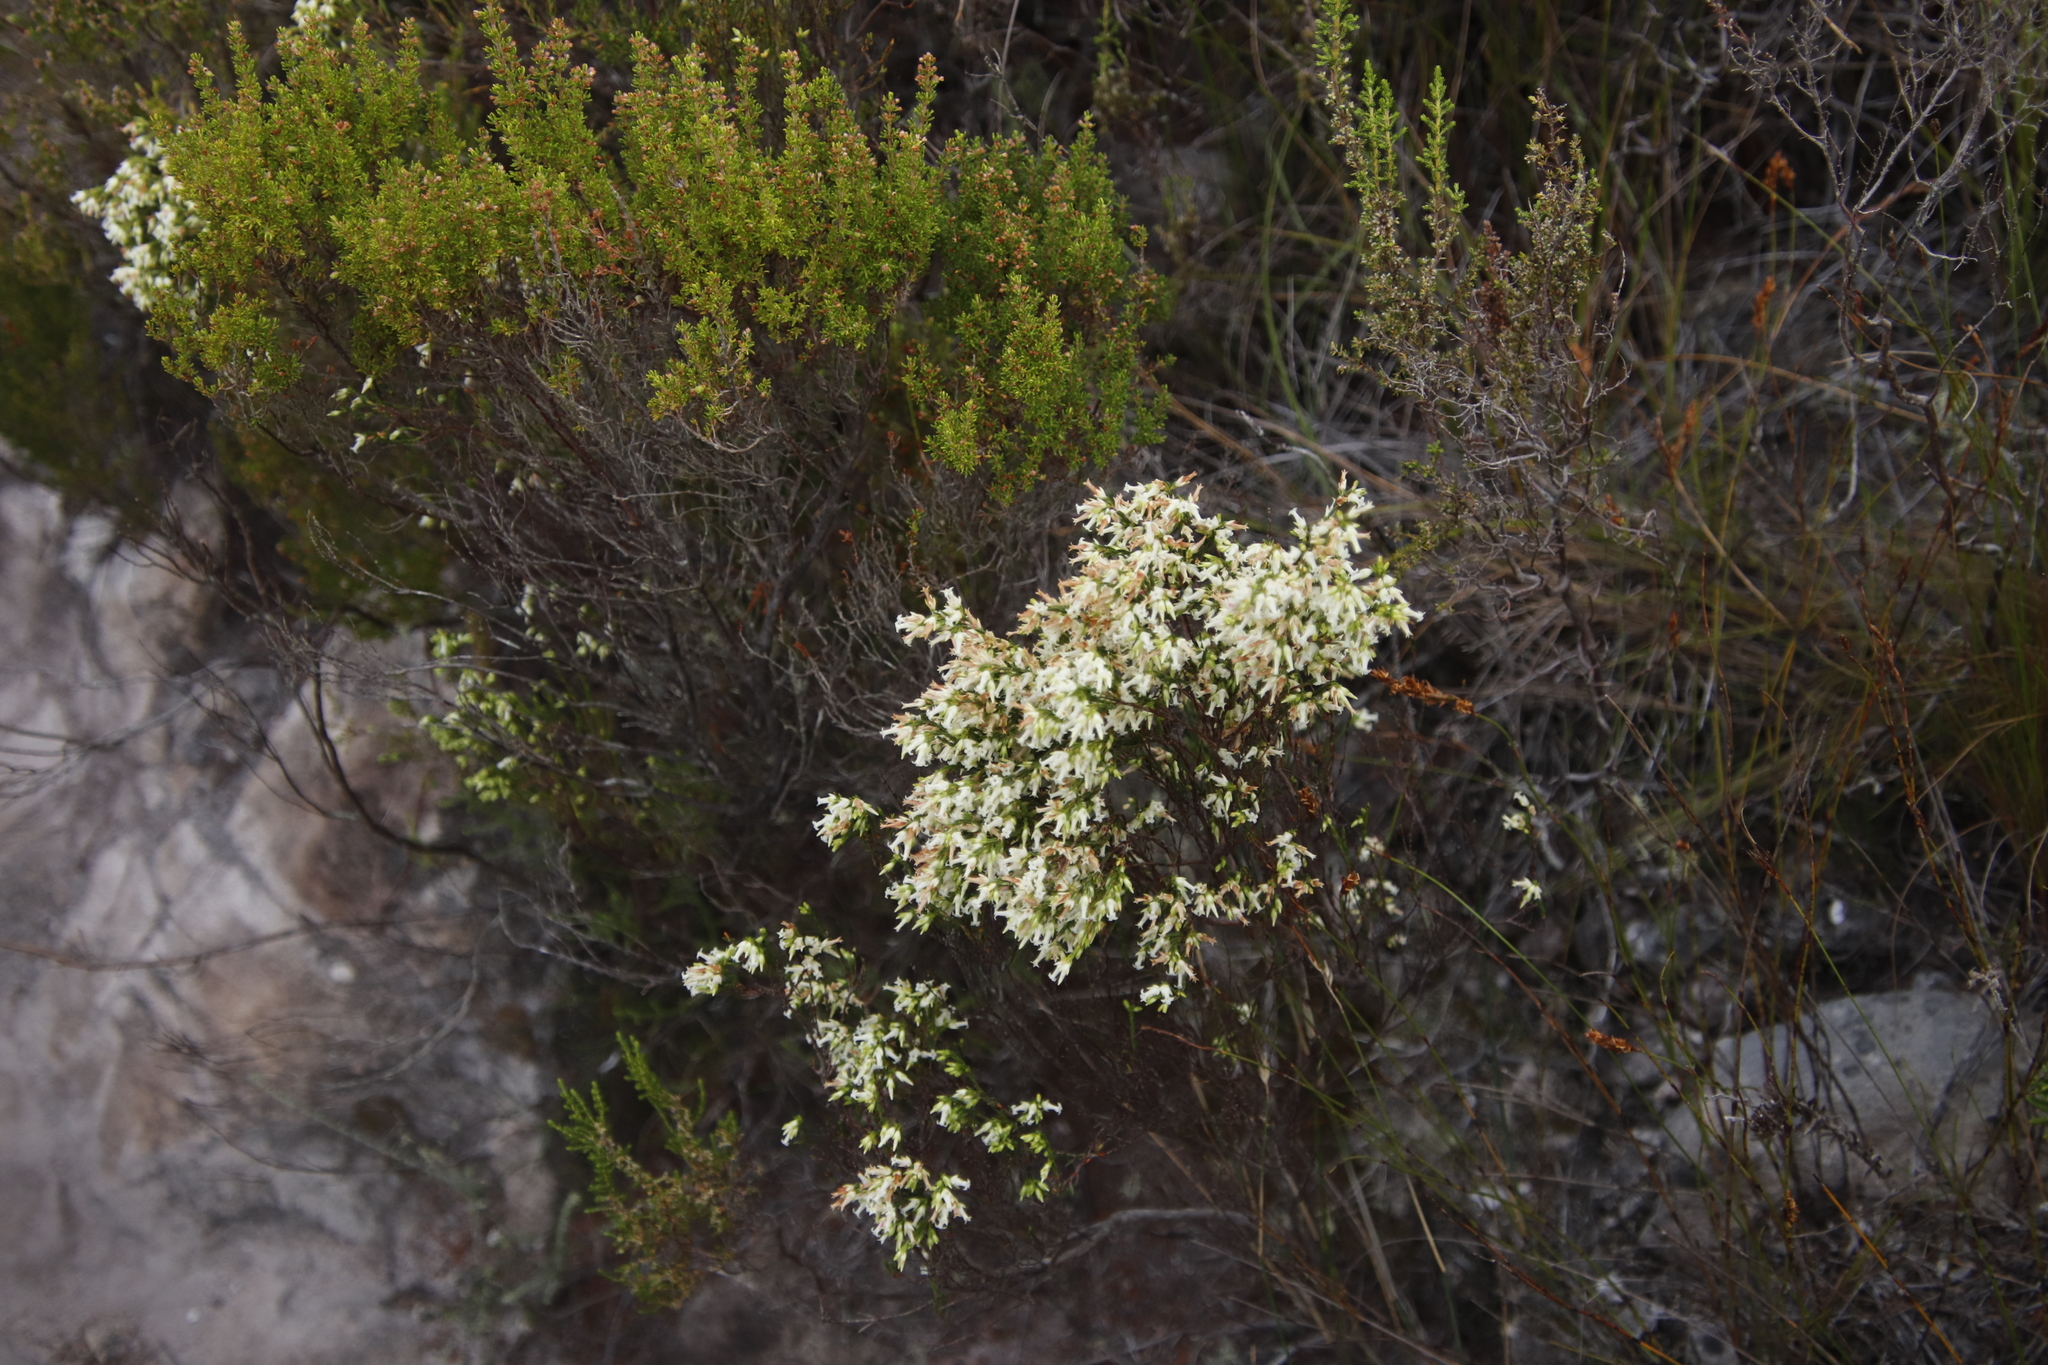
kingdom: Plantae
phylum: Tracheophyta
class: Magnoliopsida
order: Ericales
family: Ericaceae
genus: Erica
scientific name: Erica lutea
